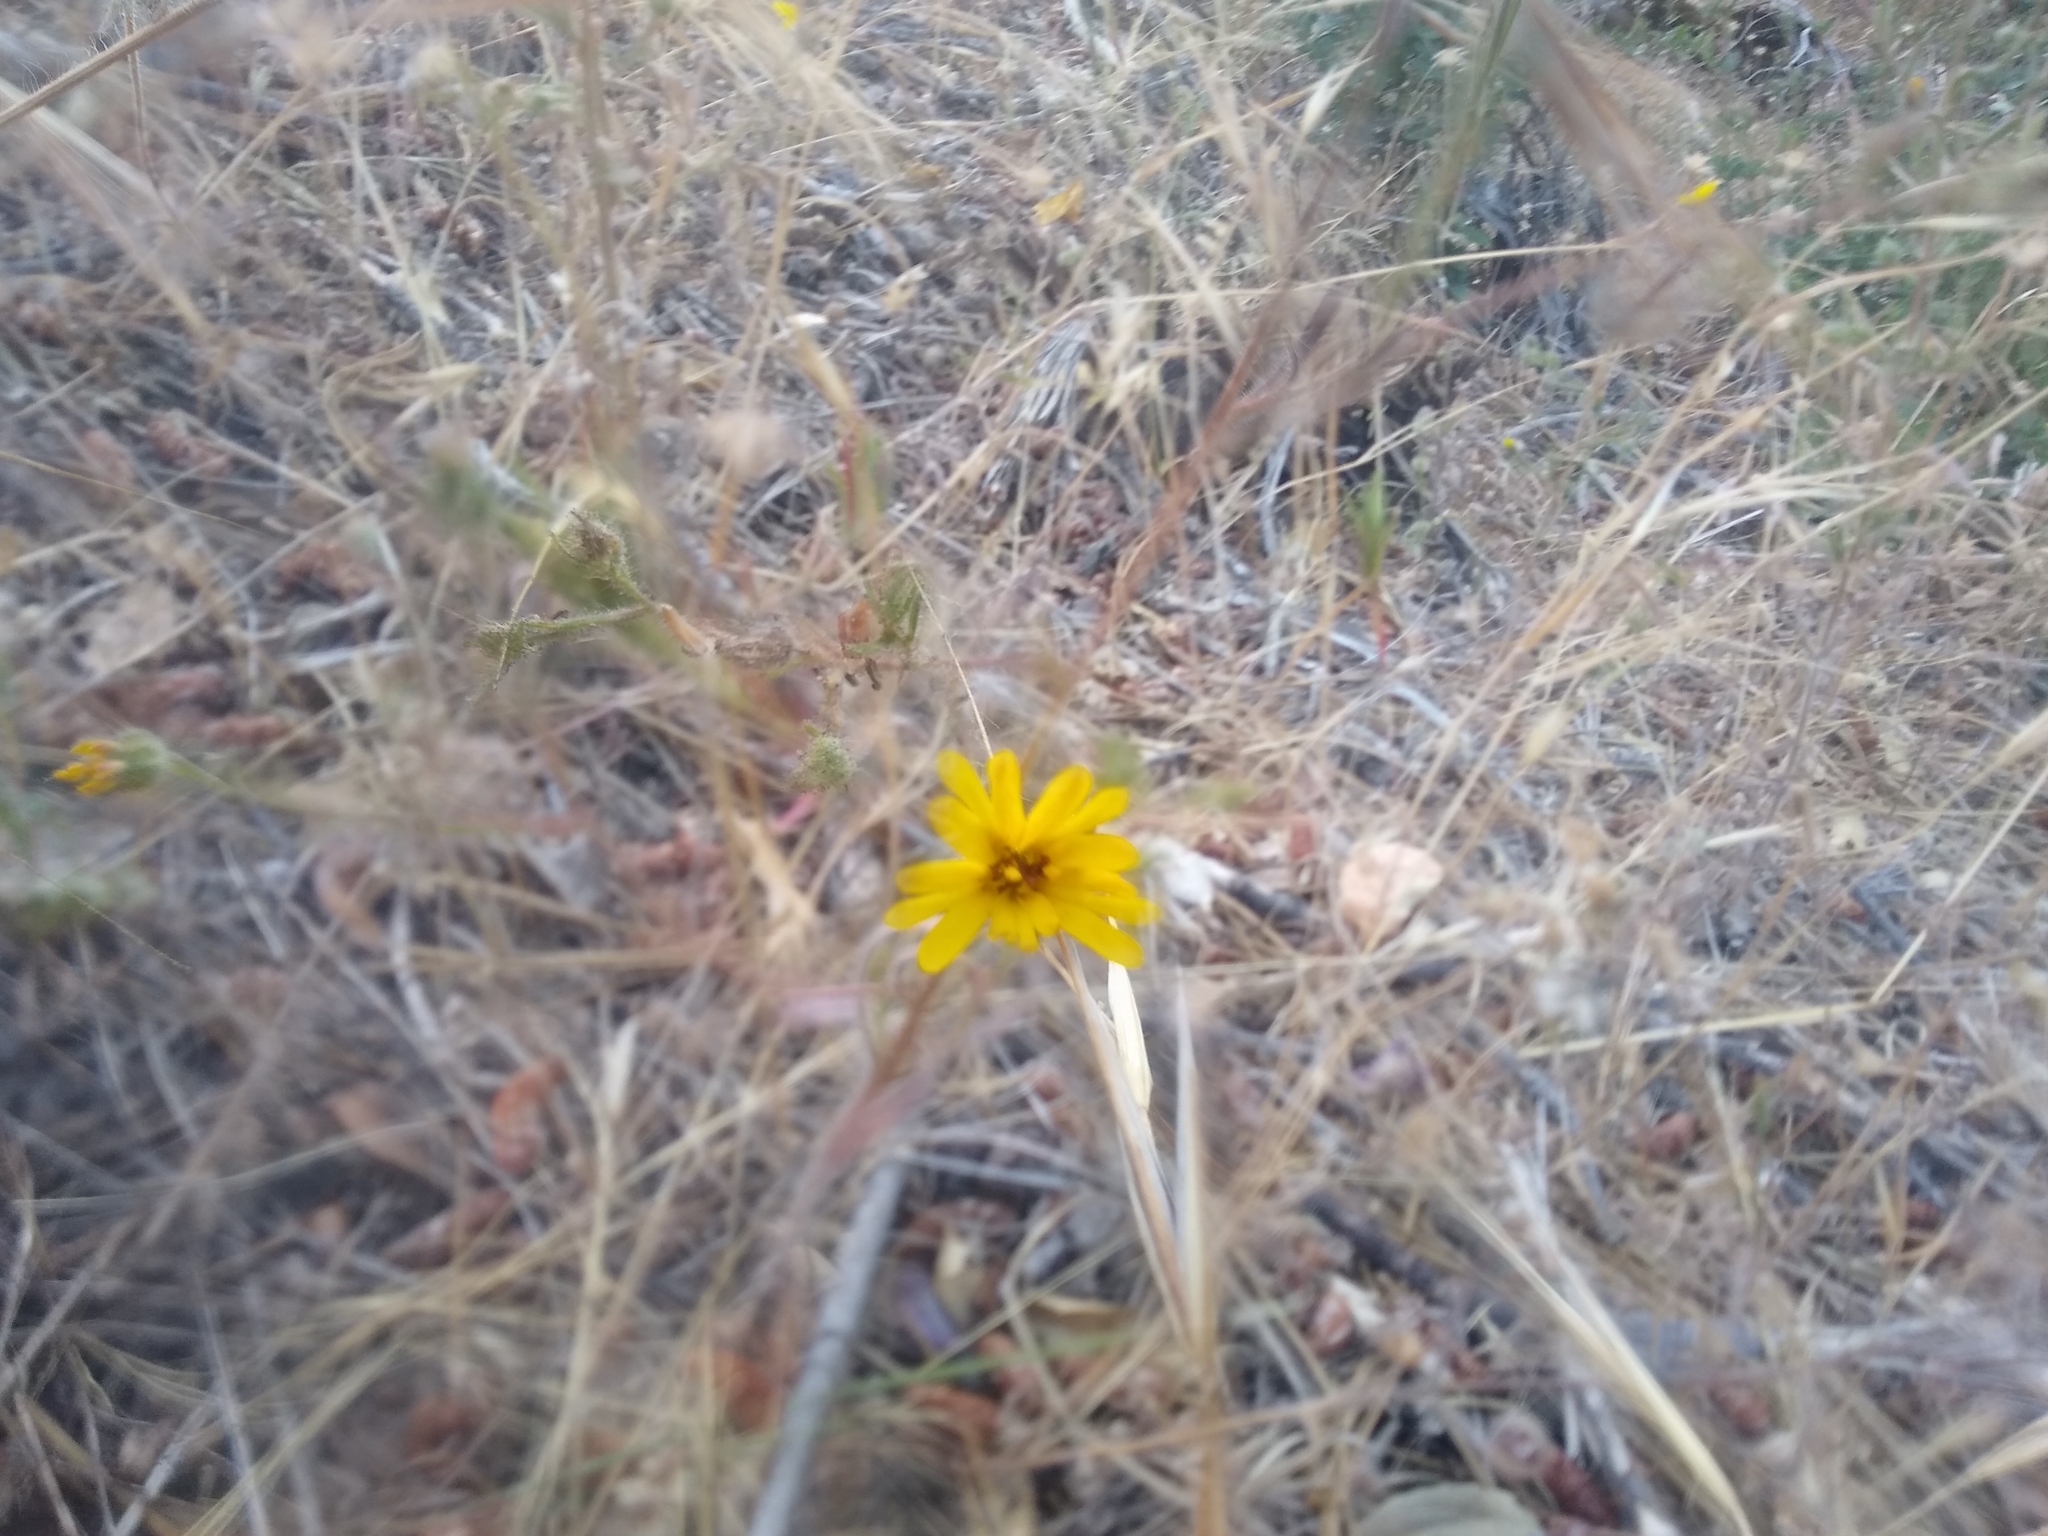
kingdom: Plantae
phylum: Tracheophyta
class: Magnoliopsida
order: Asterales
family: Asteraceae
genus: Madia
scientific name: Madia elegans
